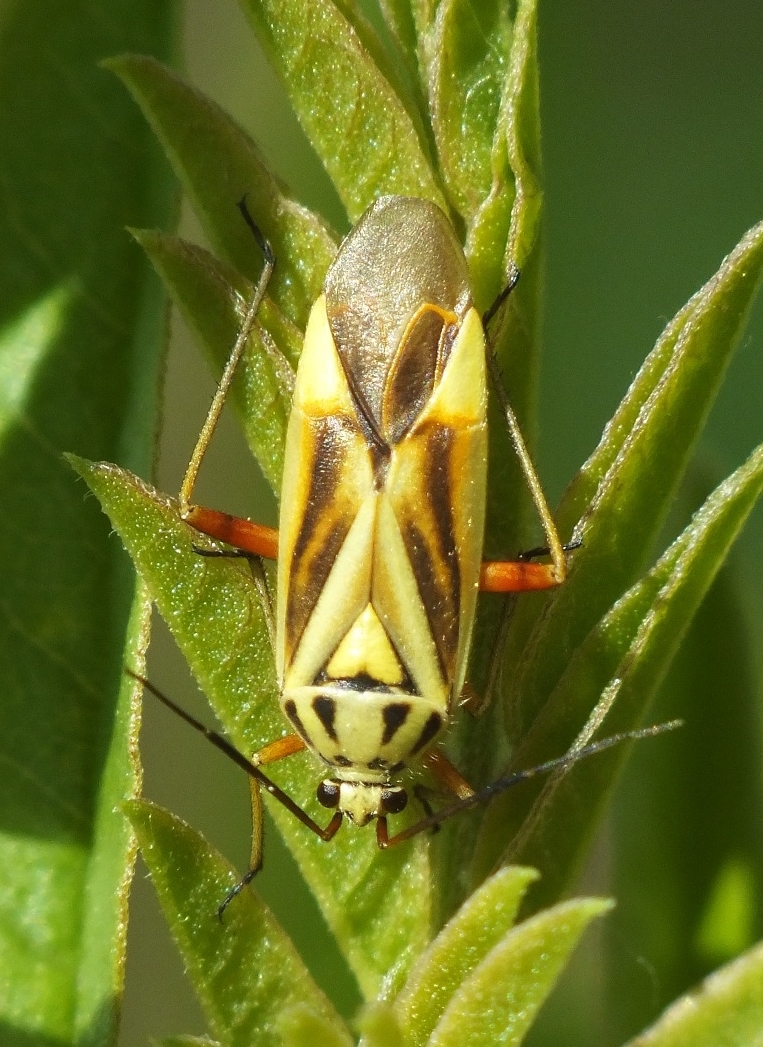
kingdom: Animalia
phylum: Arthropoda
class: Insecta
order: Hemiptera
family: Miridae
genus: Brachycoleus
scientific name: Brachycoleus decolor
